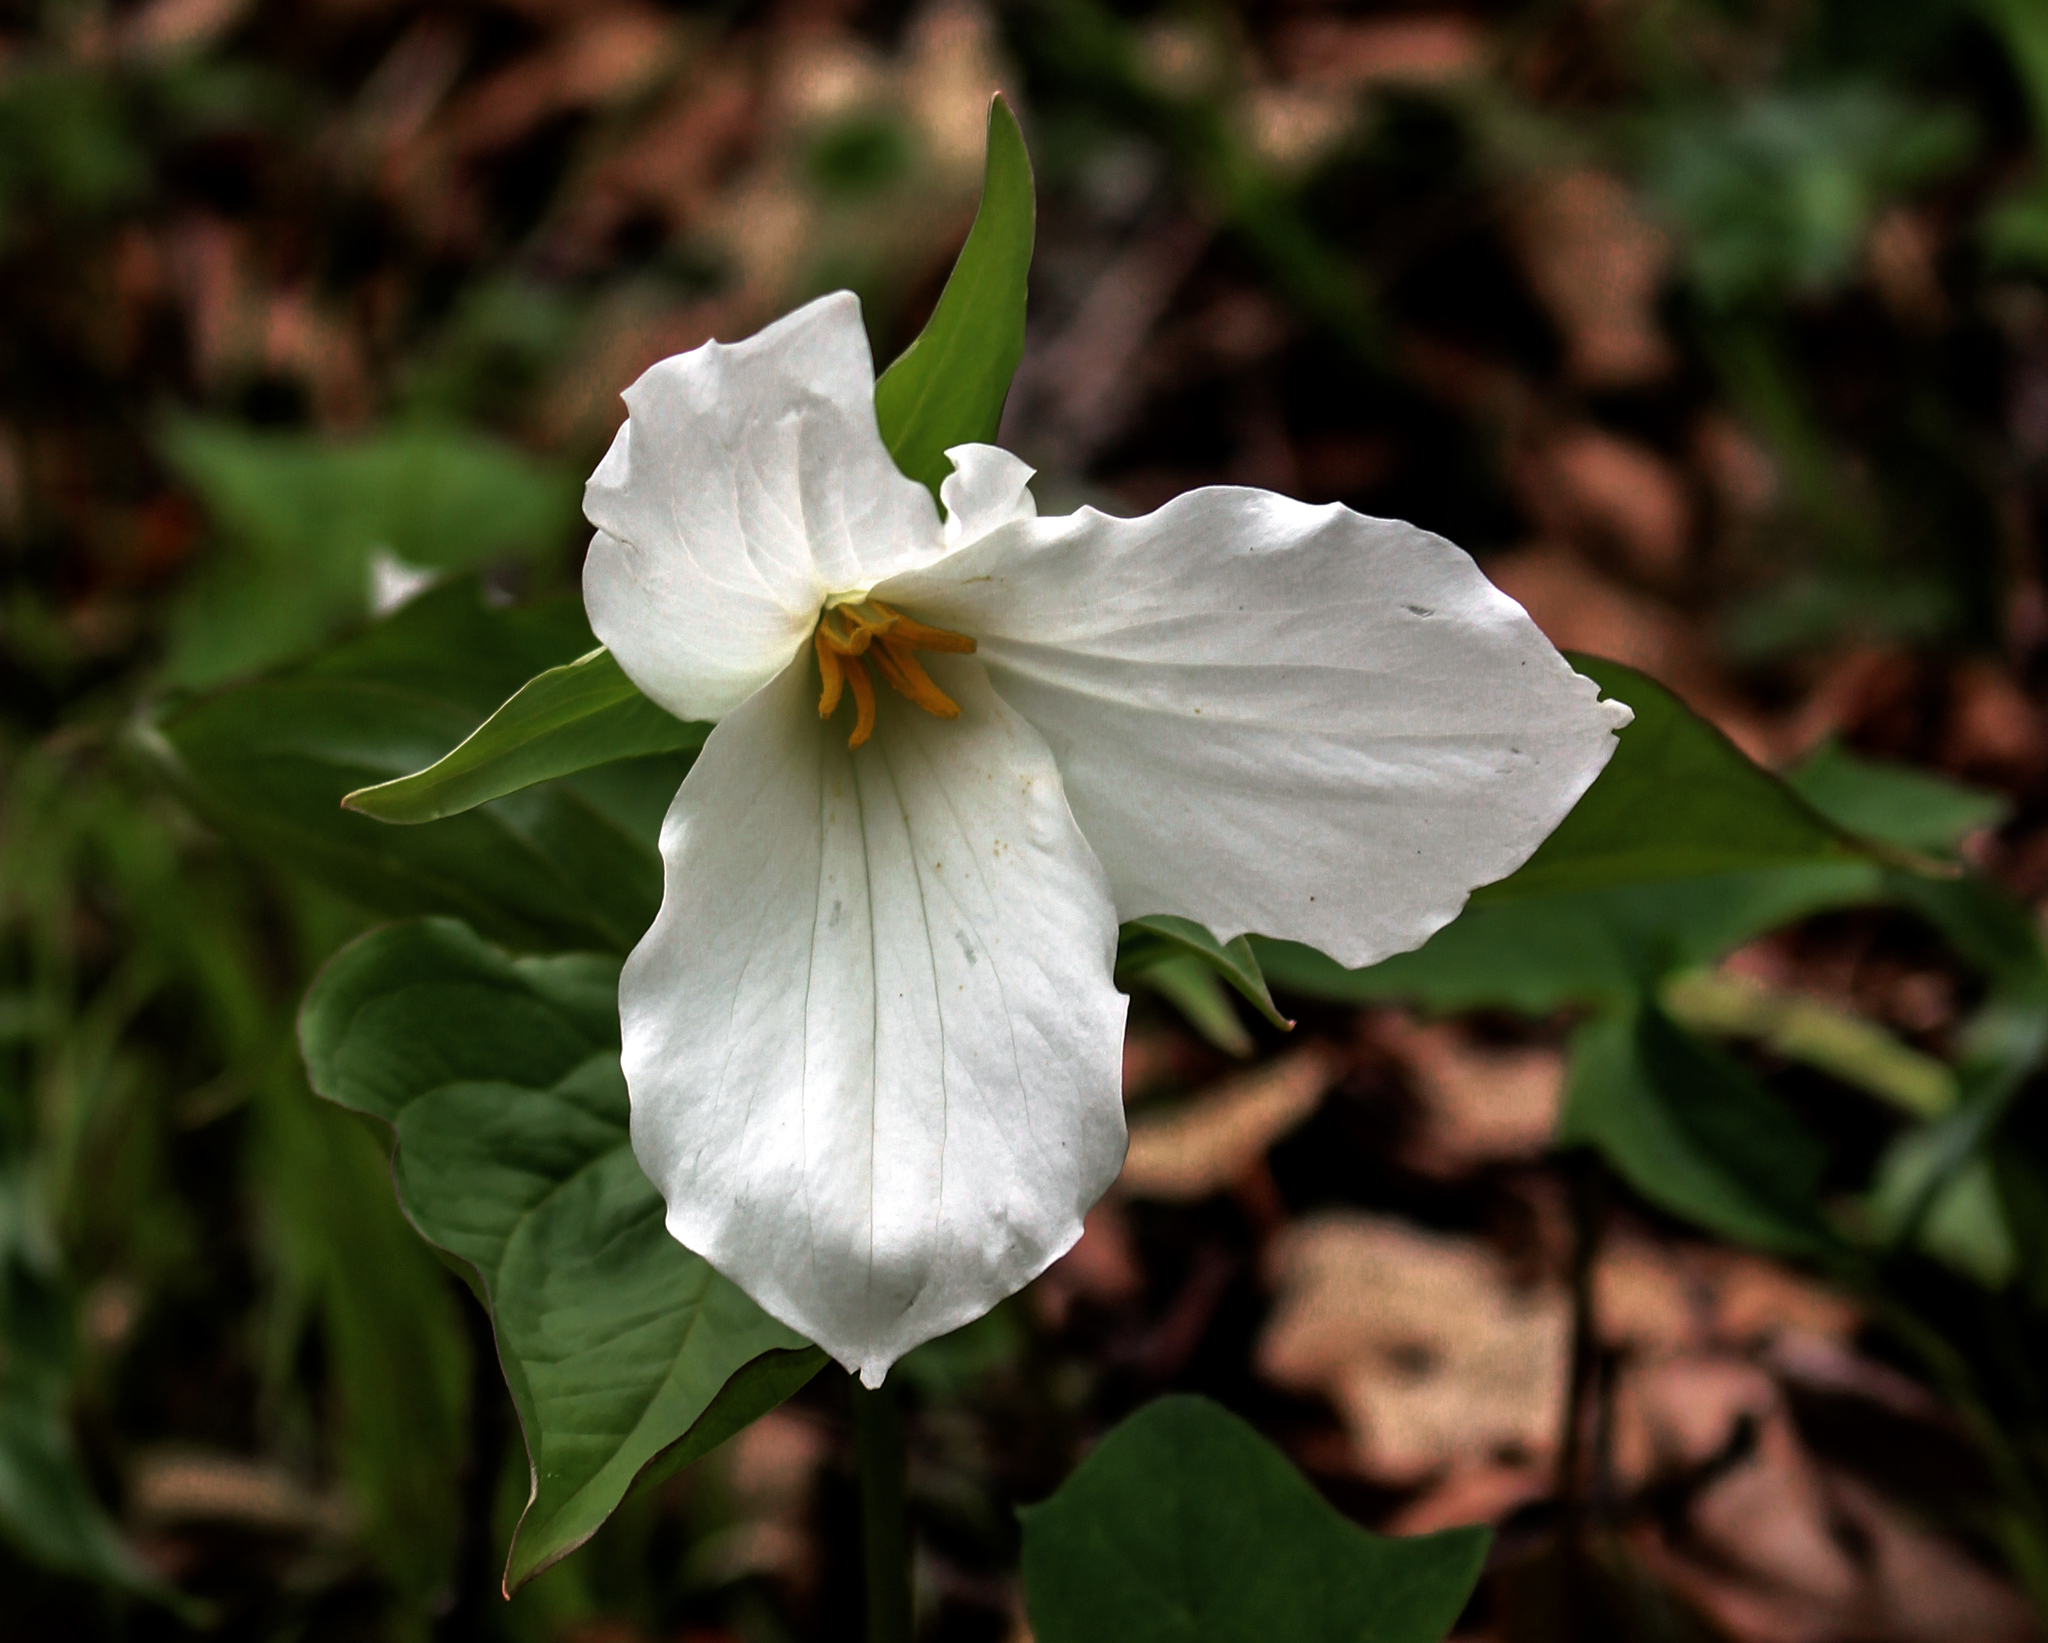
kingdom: Plantae
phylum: Tracheophyta
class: Liliopsida
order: Liliales
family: Melanthiaceae
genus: Trillium
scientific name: Trillium grandiflorum
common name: Great white trillium
